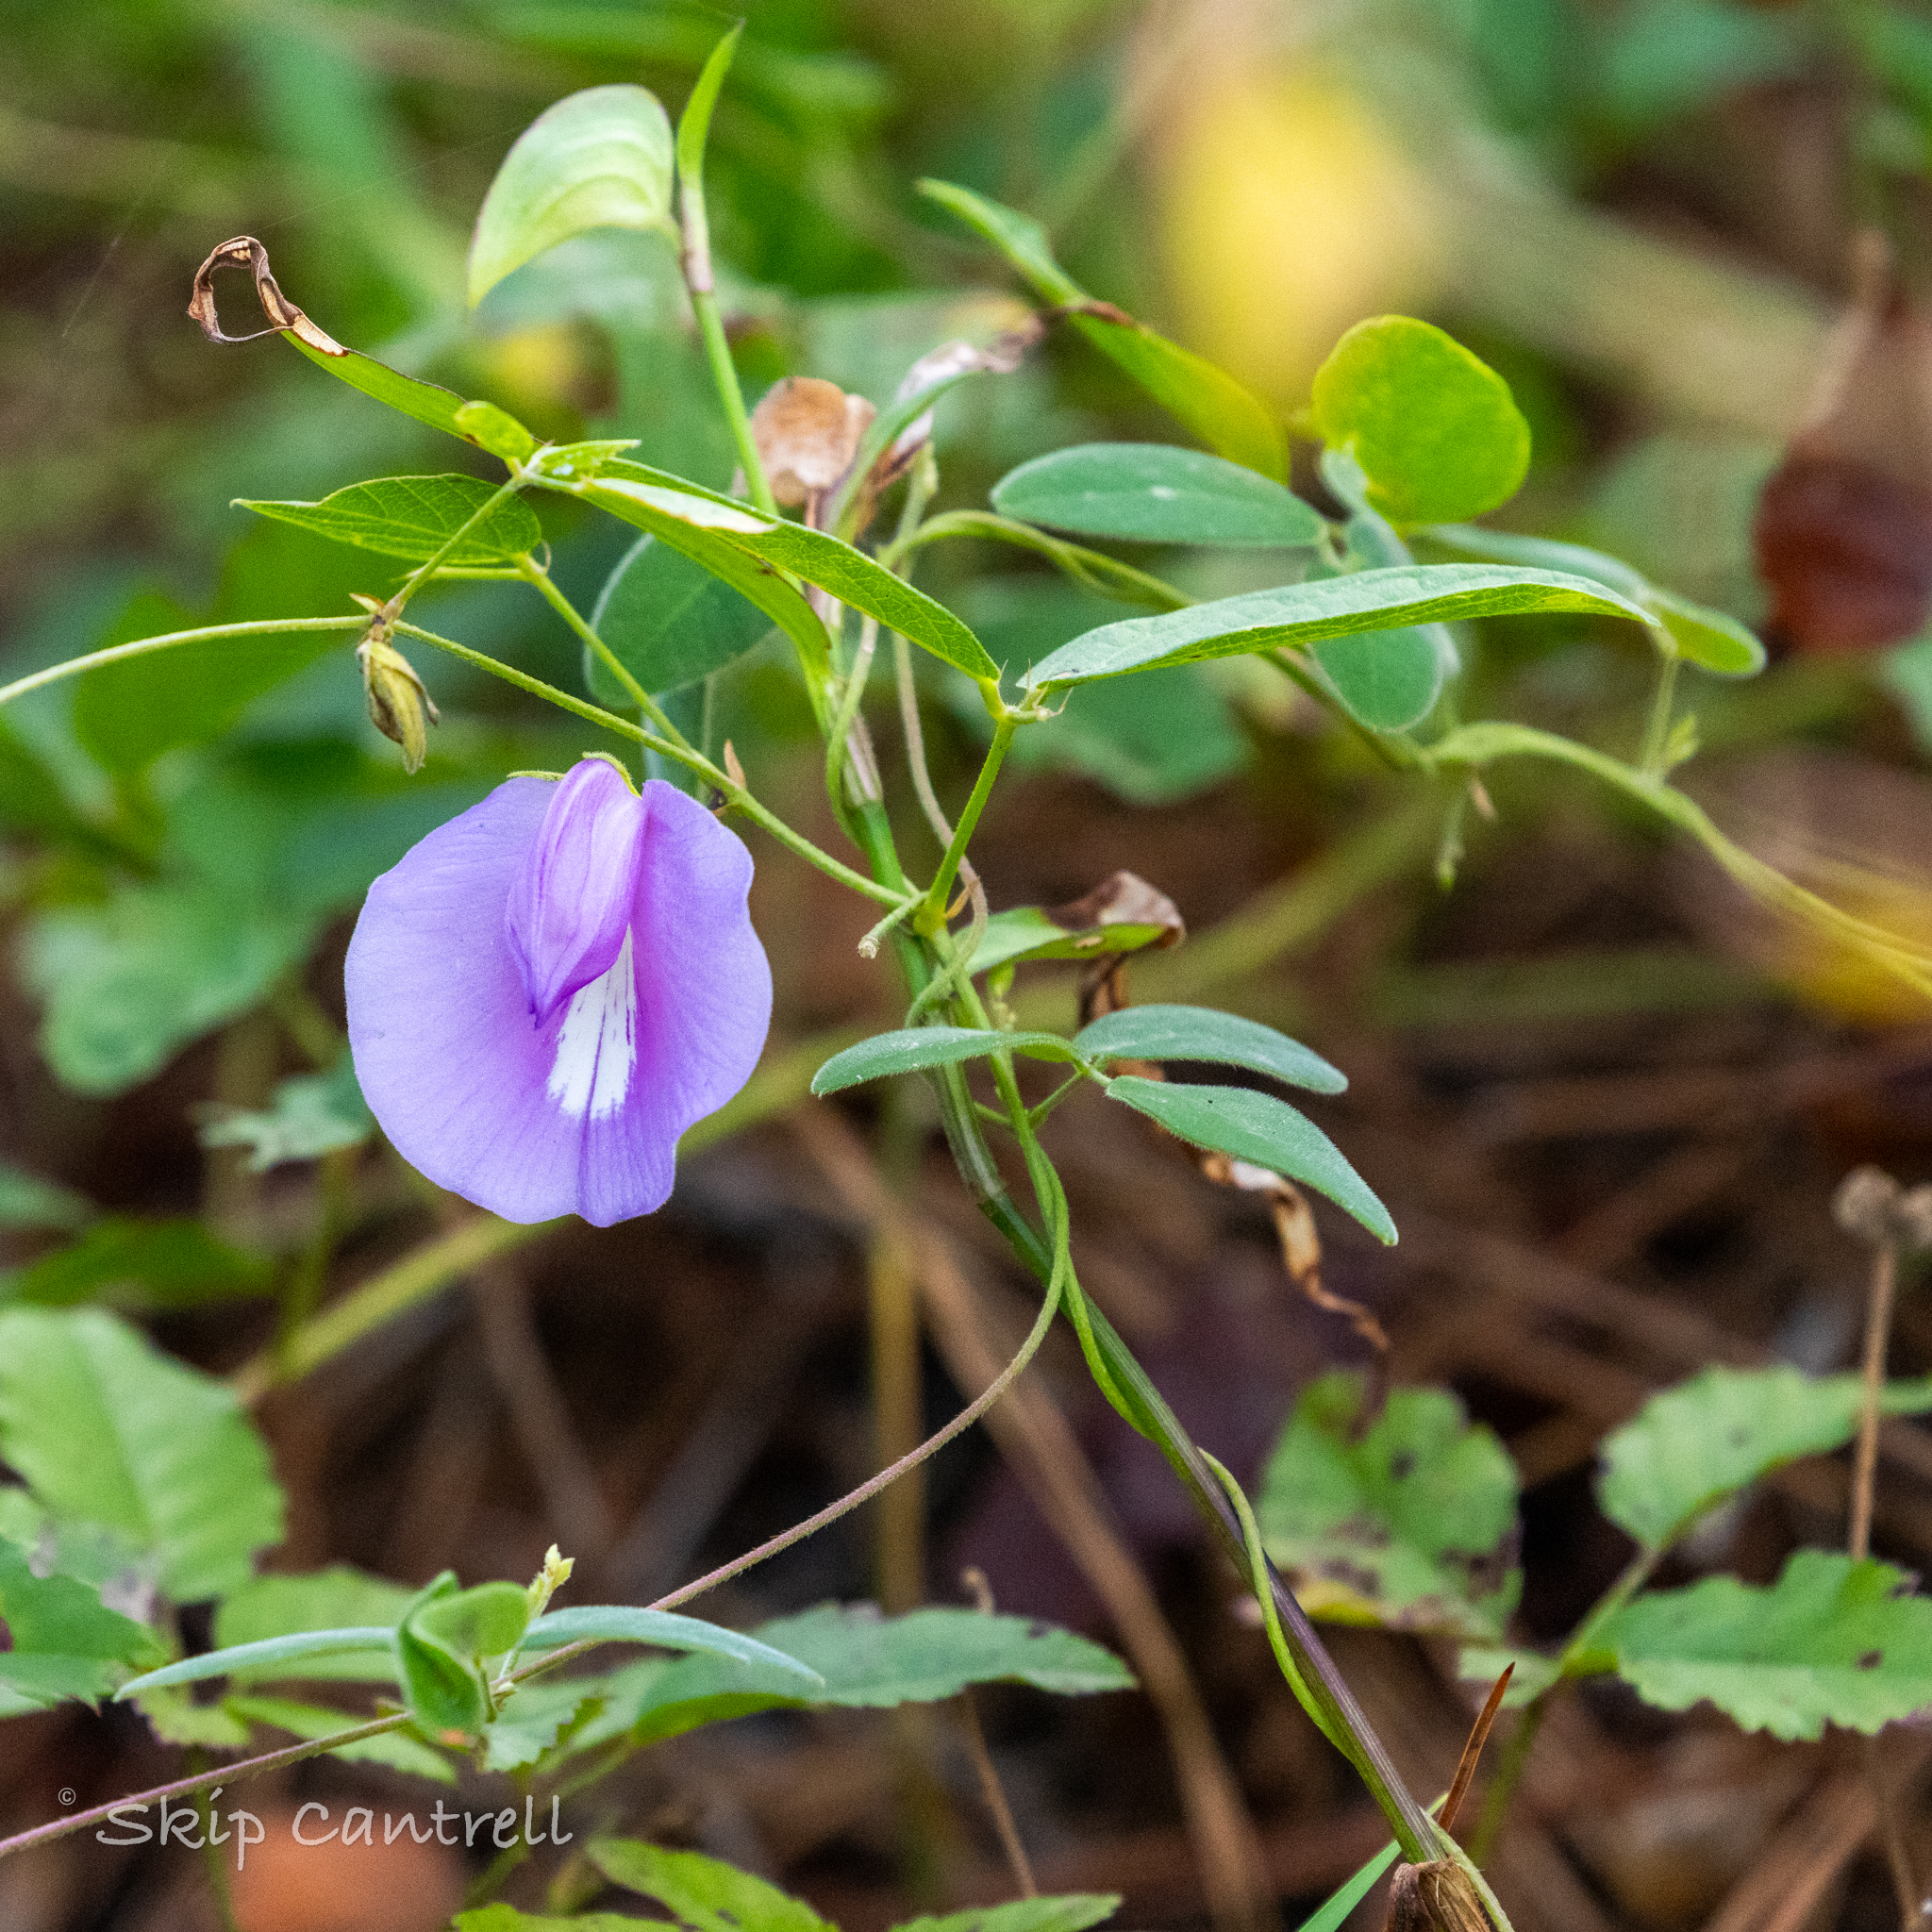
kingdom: Plantae
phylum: Tracheophyta
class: Magnoliopsida
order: Fabales
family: Fabaceae
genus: Centrosema
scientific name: Centrosema virginianum
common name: Butterfly-pea
